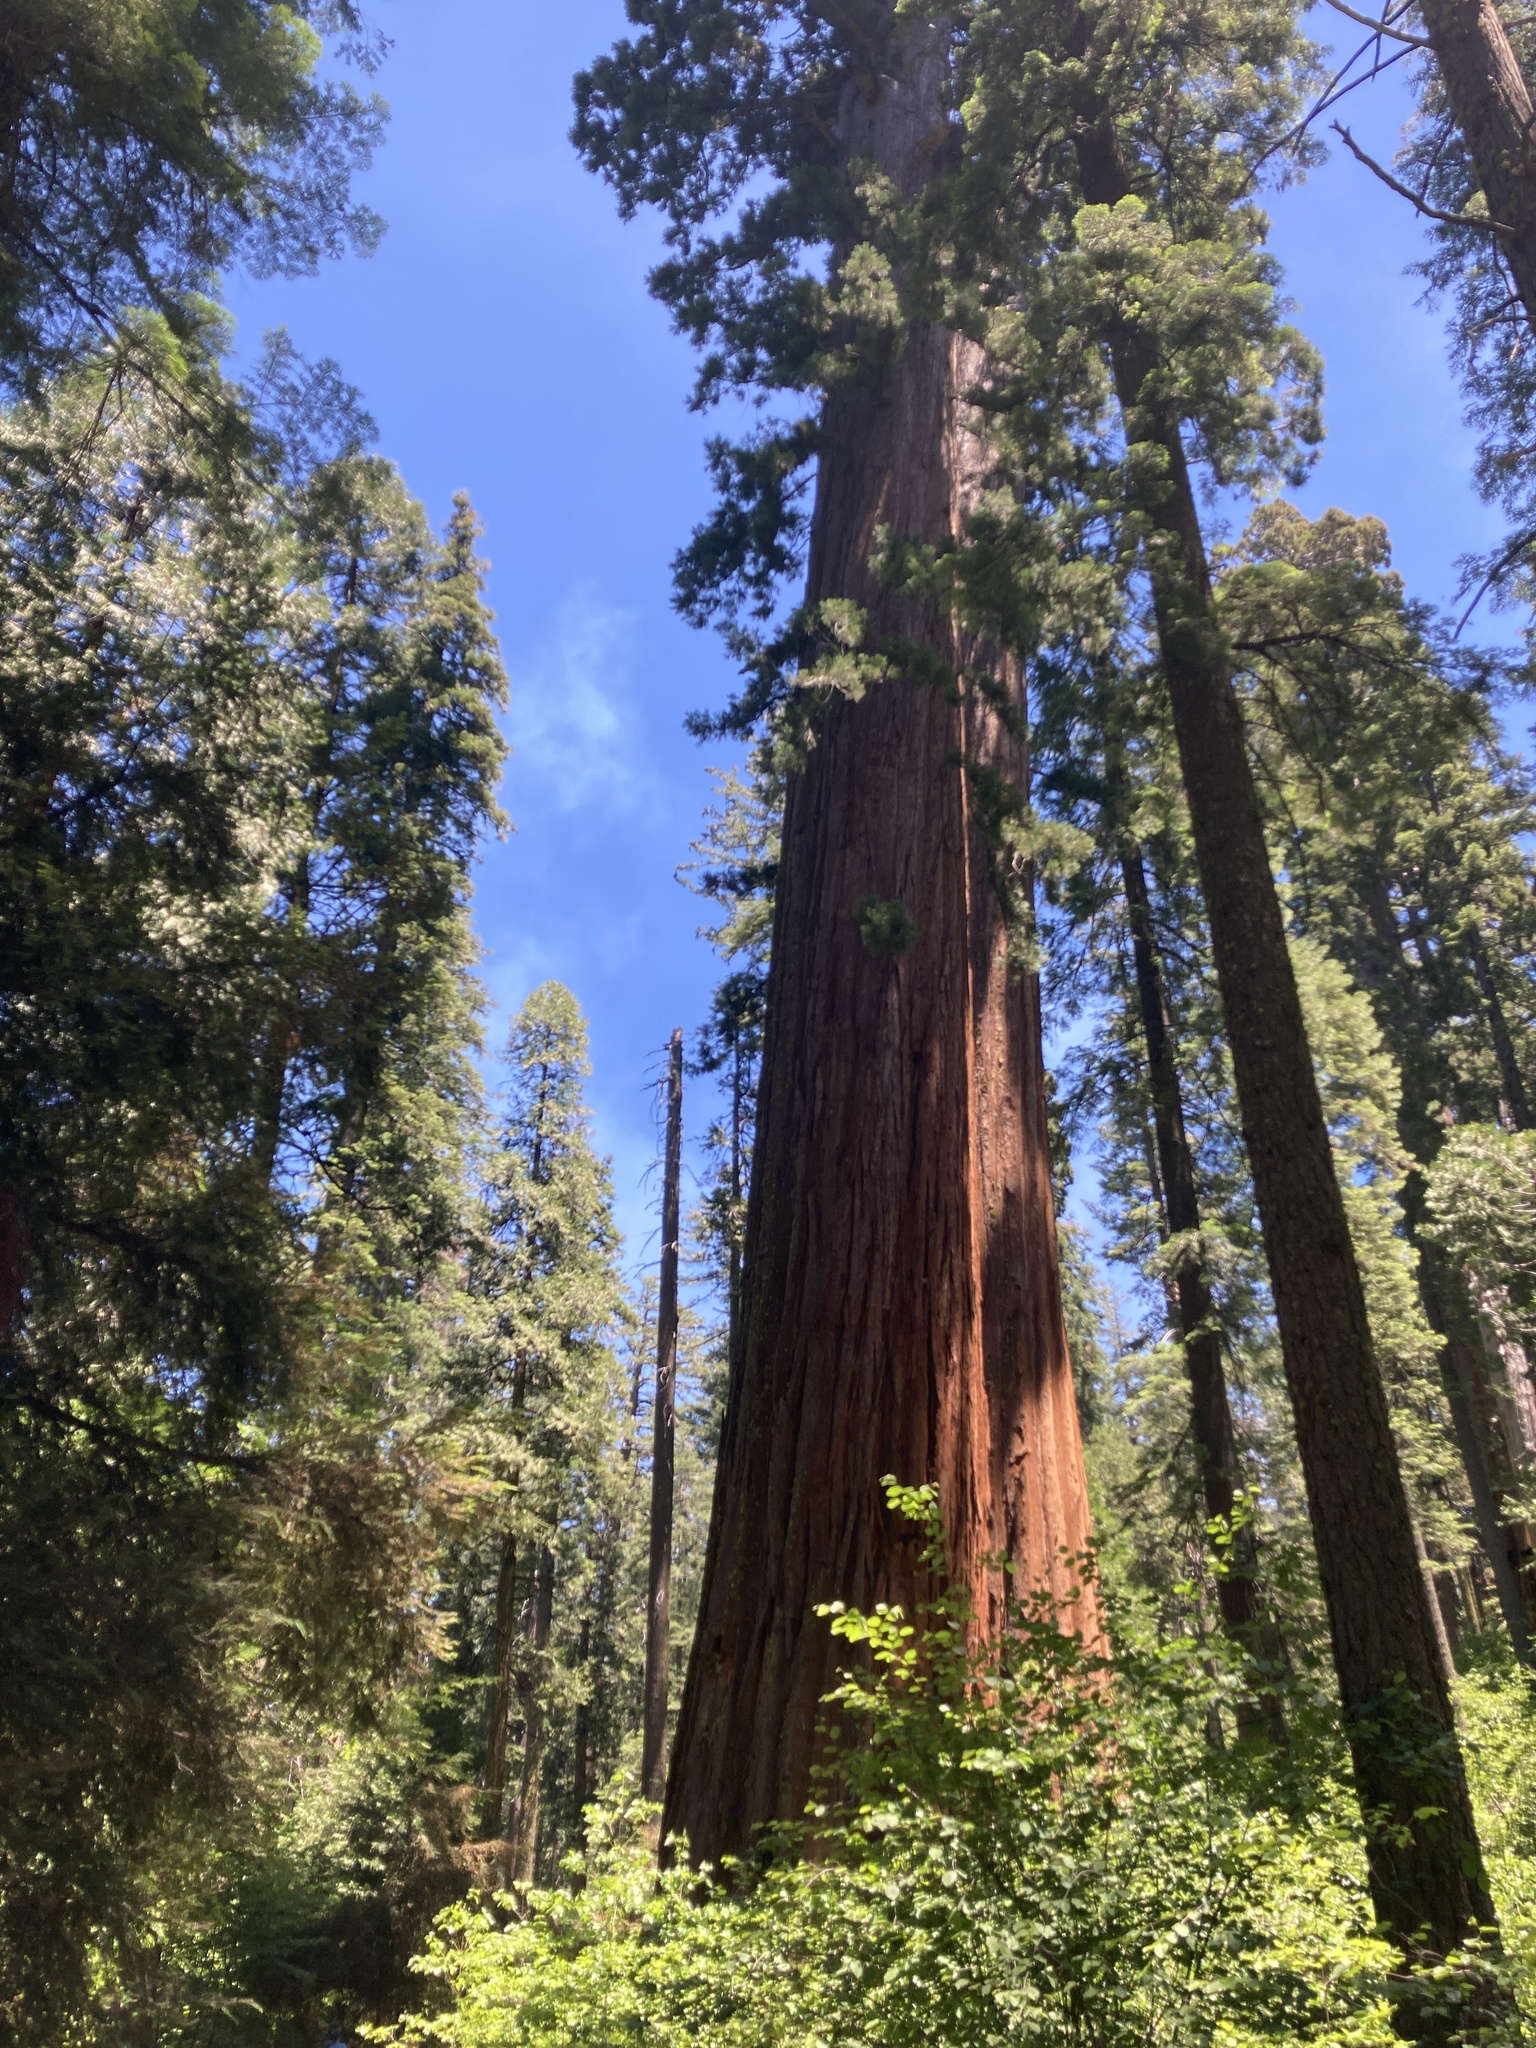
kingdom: Plantae
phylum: Tracheophyta
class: Pinopsida
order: Pinales
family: Cupressaceae
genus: Sequoiadendron
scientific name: Sequoiadendron giganteum
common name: Wellingtonia
